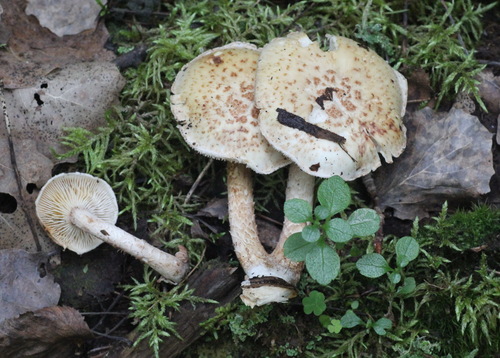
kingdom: Fungi
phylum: Basidiomycota
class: Agaricomycetes
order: Gloeophyllales
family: Gloeophyllaceae
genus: Neolentinus
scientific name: Neolentinus lepideus
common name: Scaly sawgill
